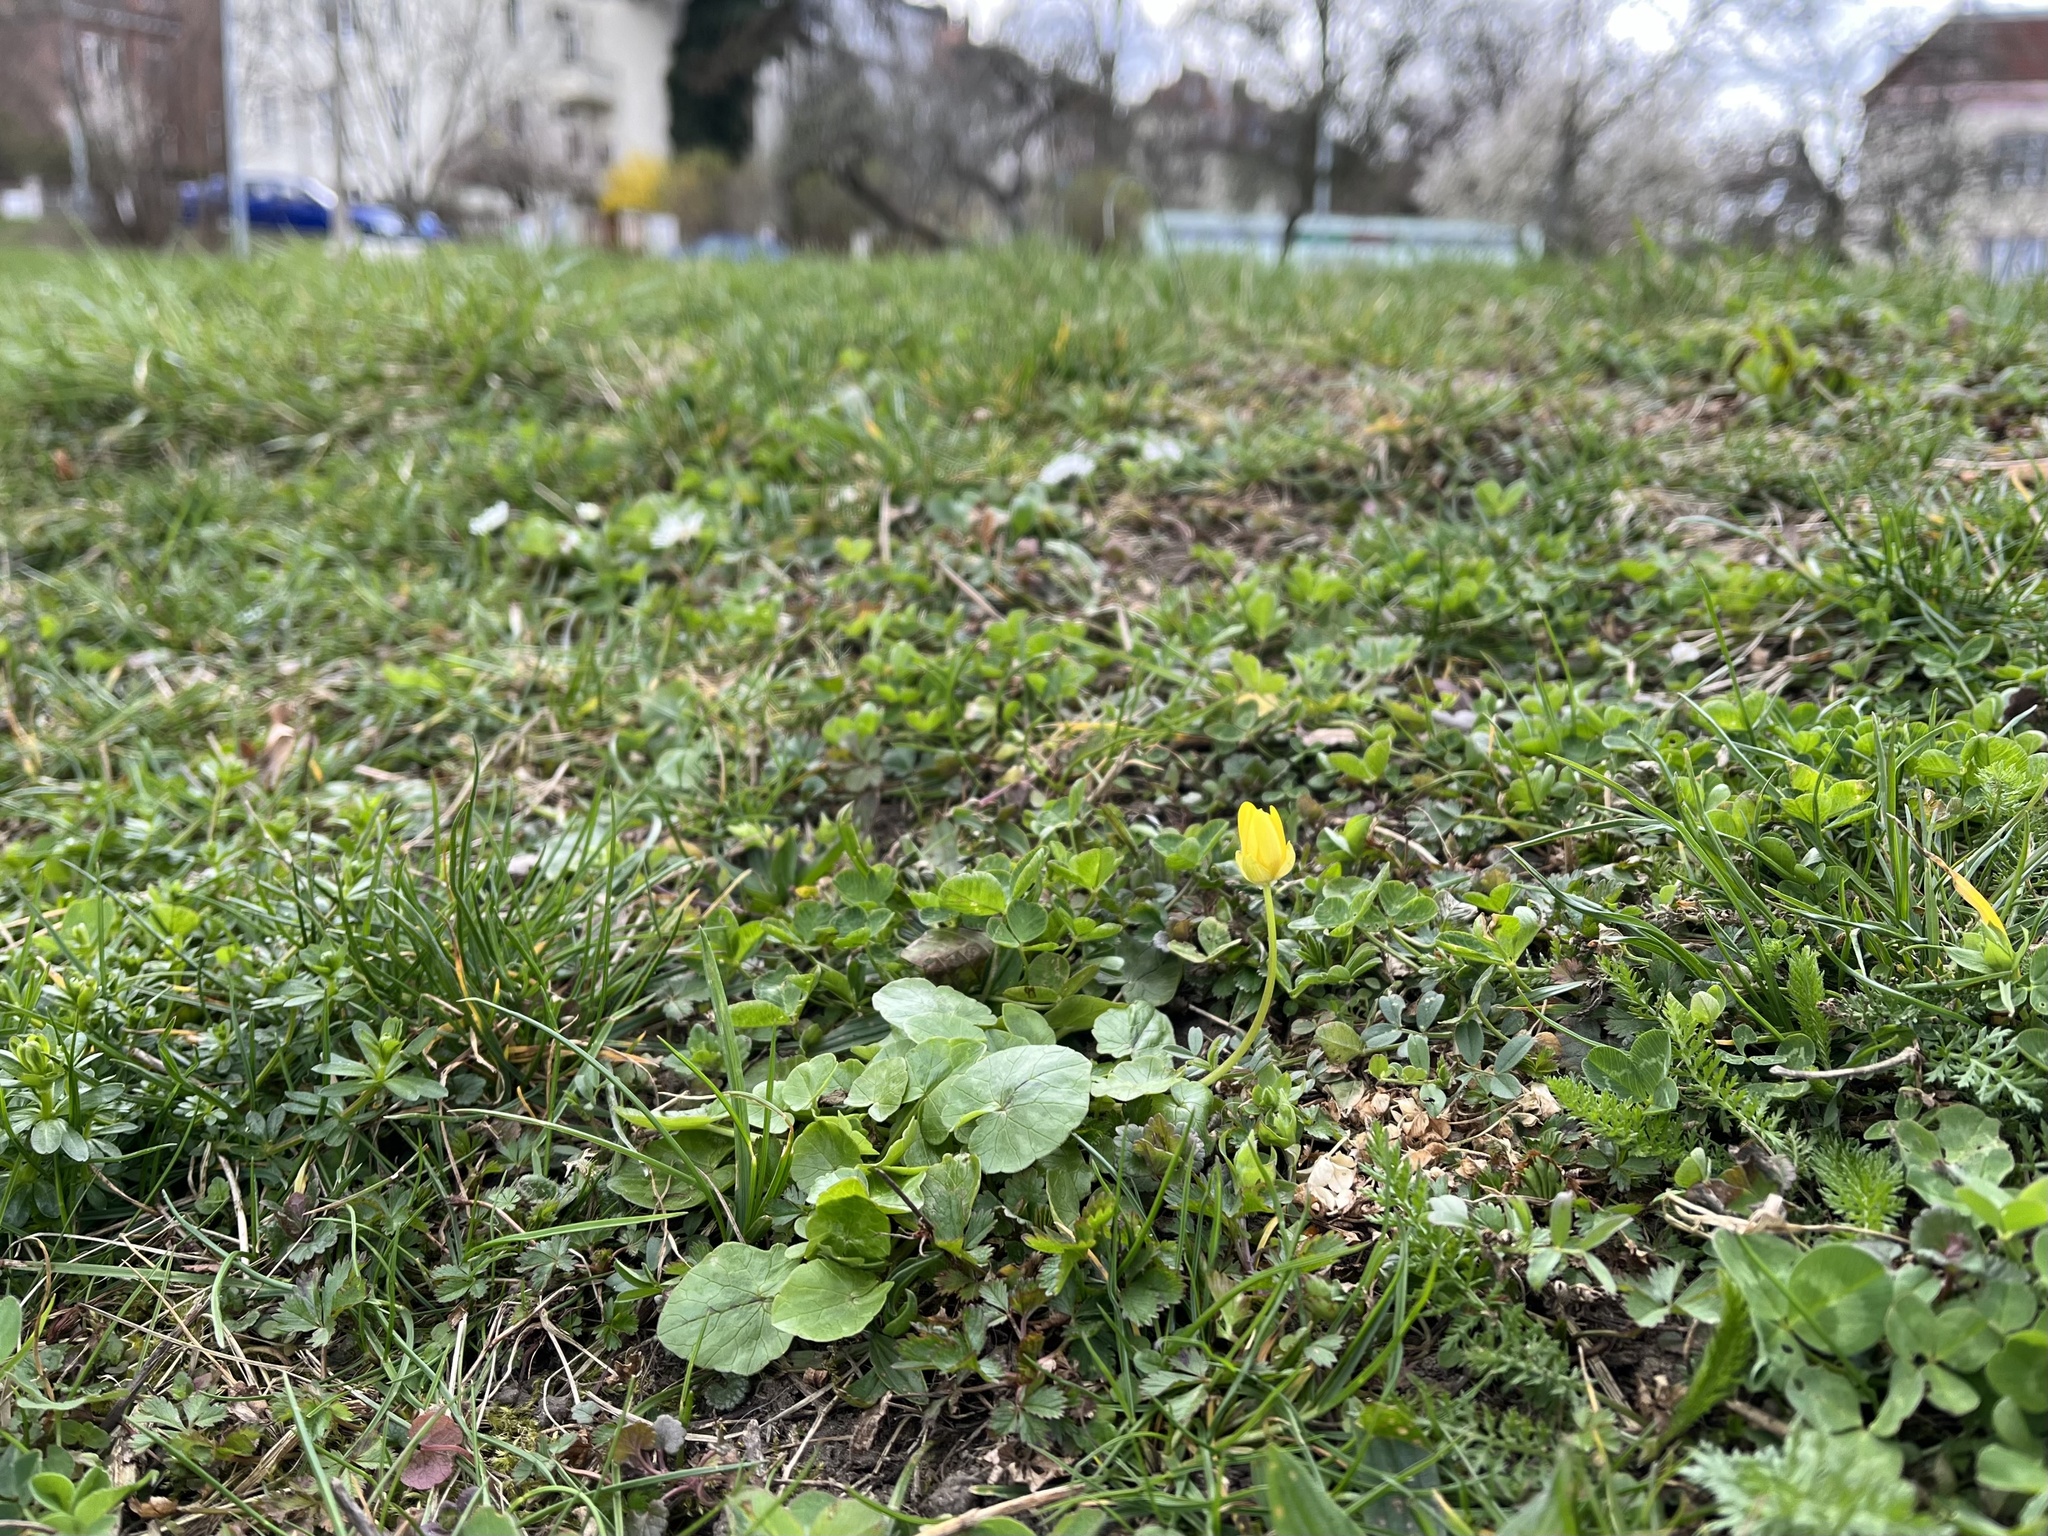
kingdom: Plantae
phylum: Tracheophyta
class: Magnoliopsida
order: Ranunculales
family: Ranunculaceae
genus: Ficaria
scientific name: Ficaria verna
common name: Lesser celandine
